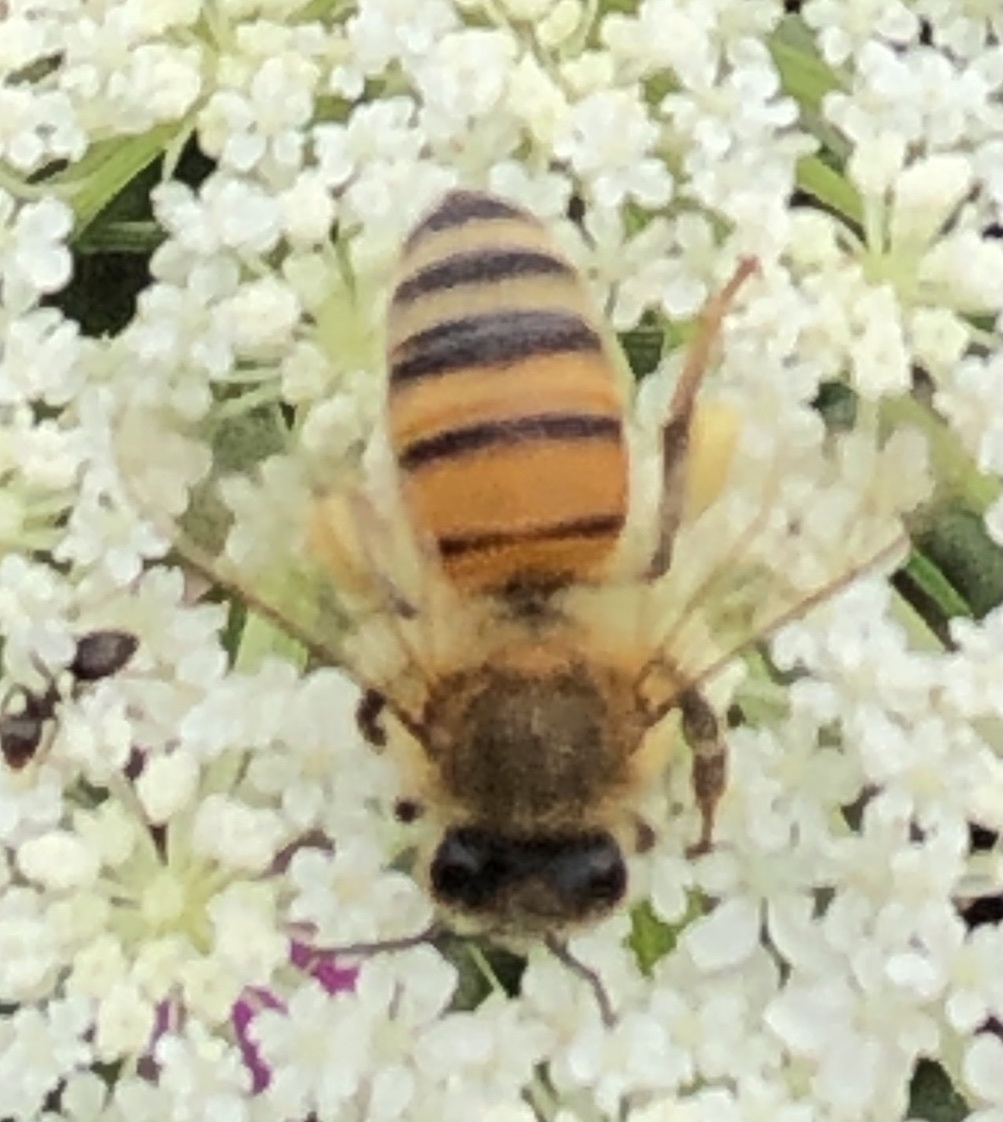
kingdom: Animalia
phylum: Arthropoda
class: Insecta
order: Hymenoptera
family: Apidae
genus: Apis
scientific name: Apis mellifera
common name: Honey bee
